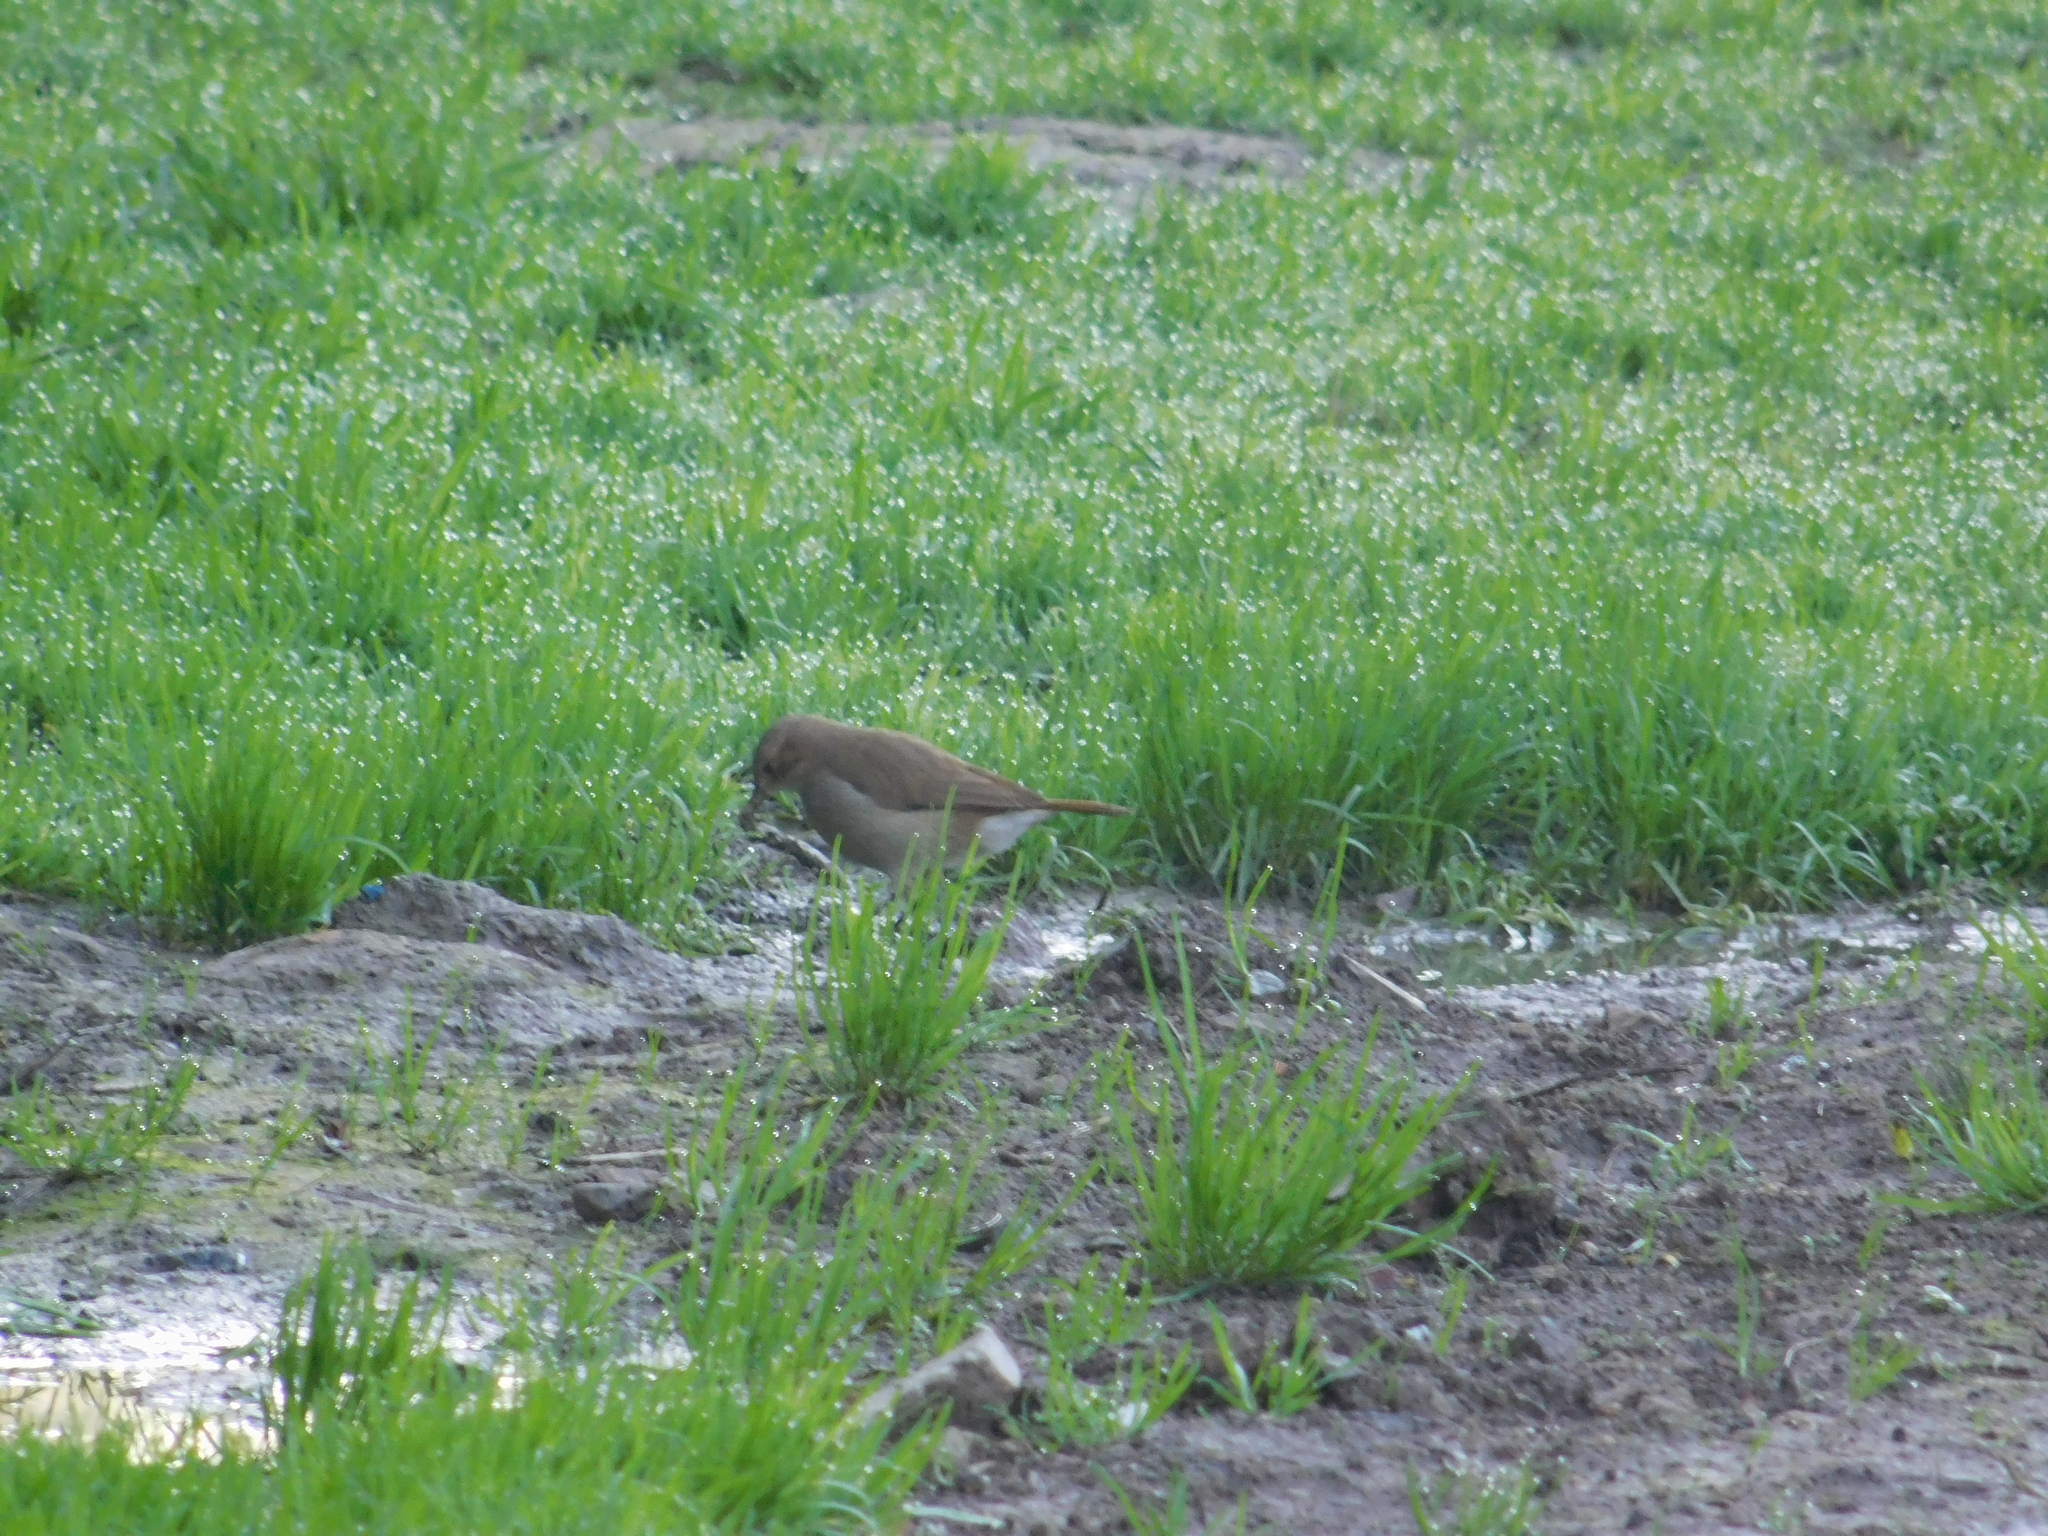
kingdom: Animalia
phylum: Chordata
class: Aves
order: Passeriformes
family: Furnariidae
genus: Furnarius
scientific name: Furnarius rufus
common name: Rufous hornero
